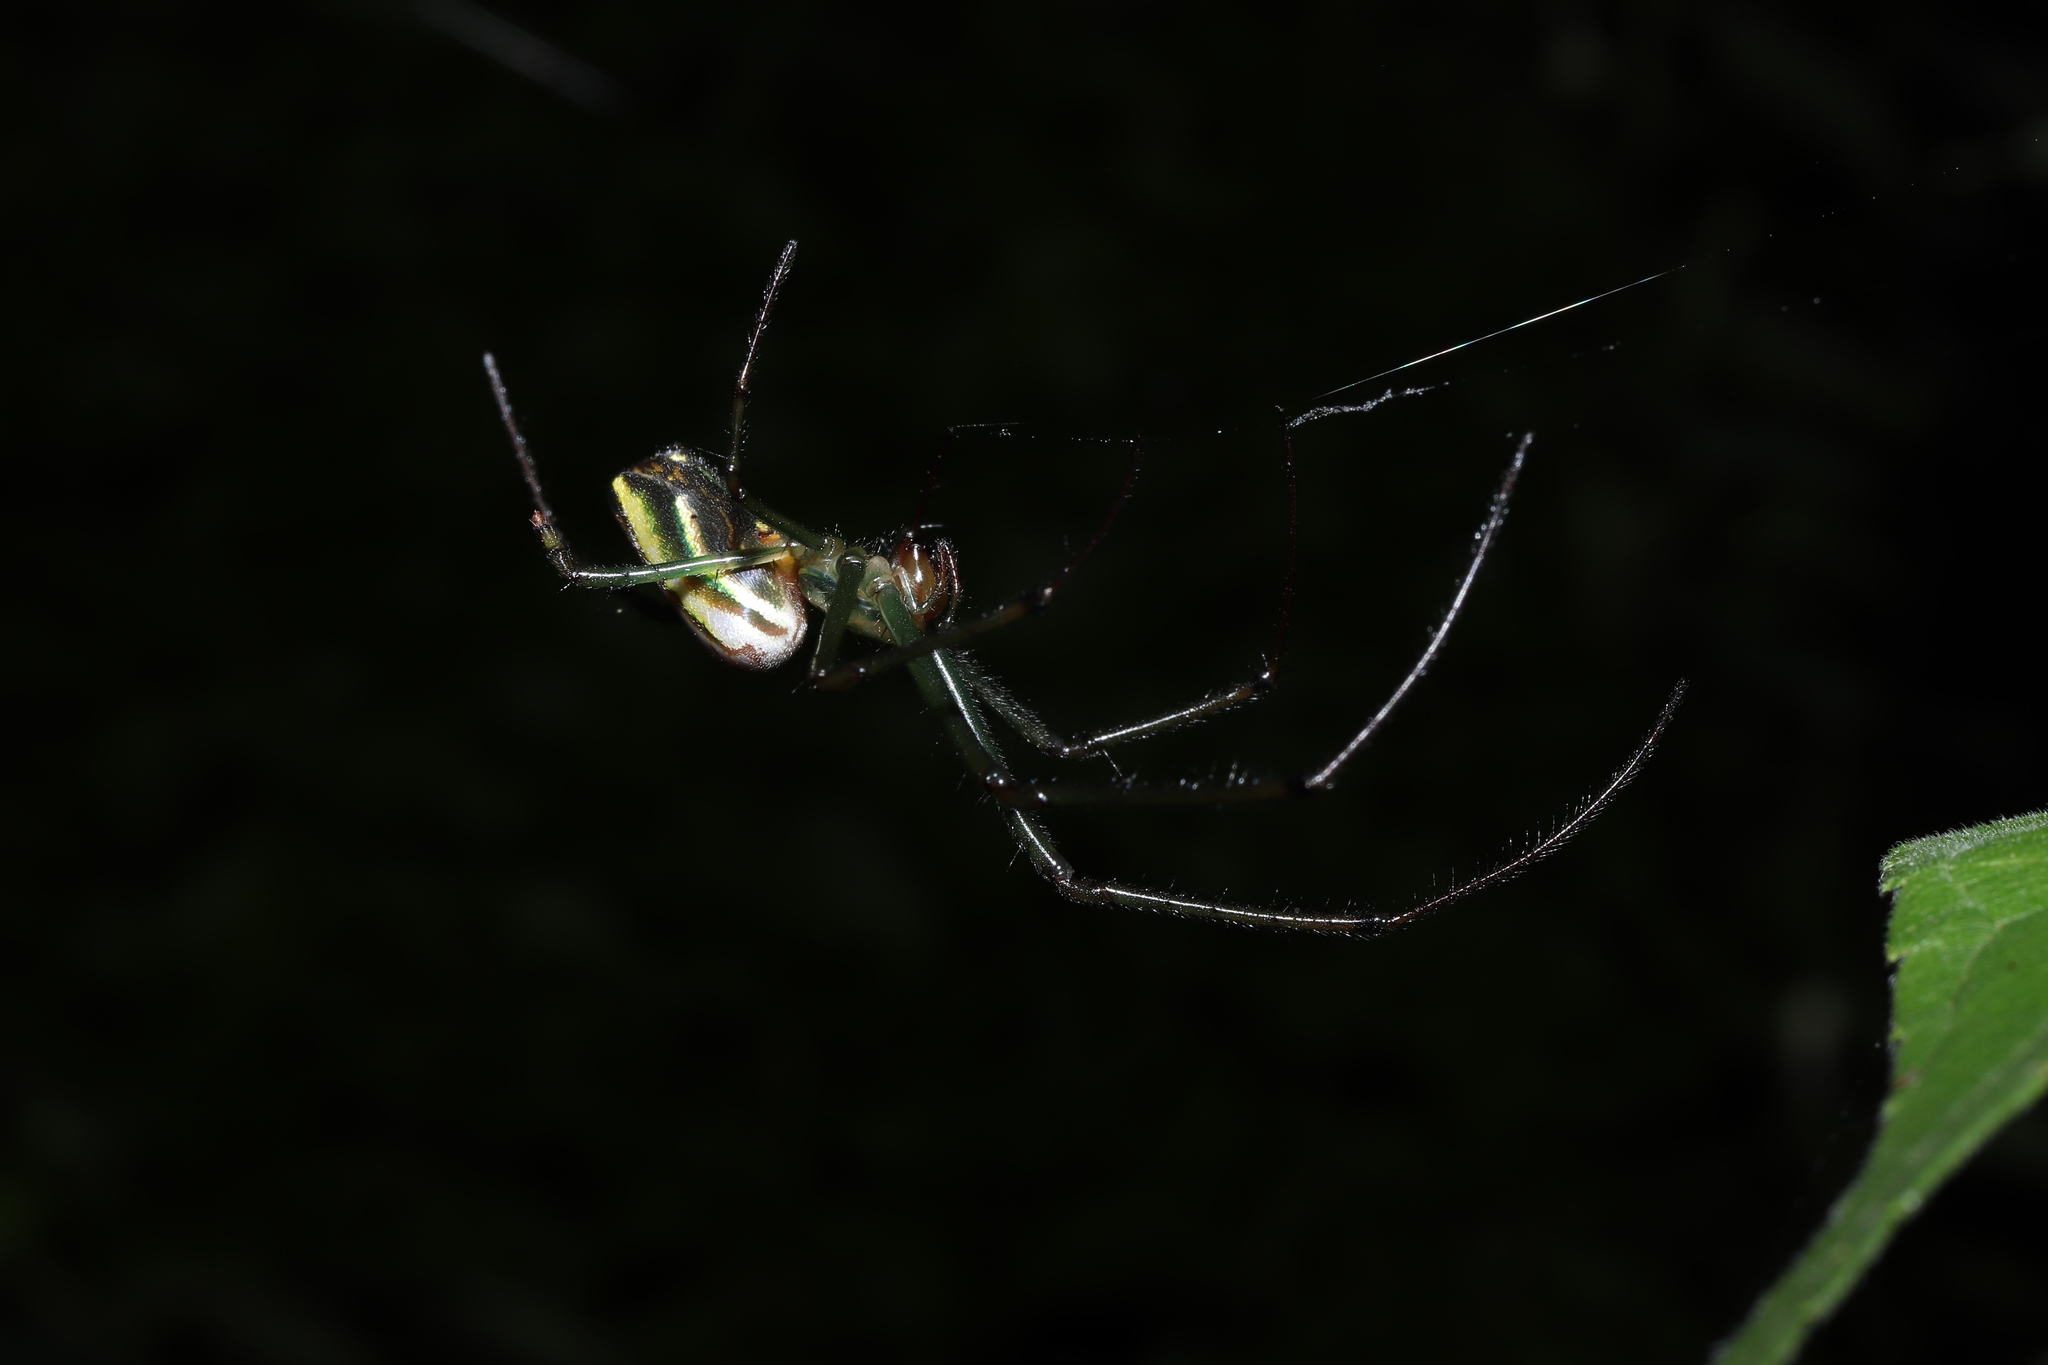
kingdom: Animalia
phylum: Arthropoda
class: Arachnida
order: Araneae
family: Tetragnathidae
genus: Leucauge
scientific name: Leucauge celebesiana
